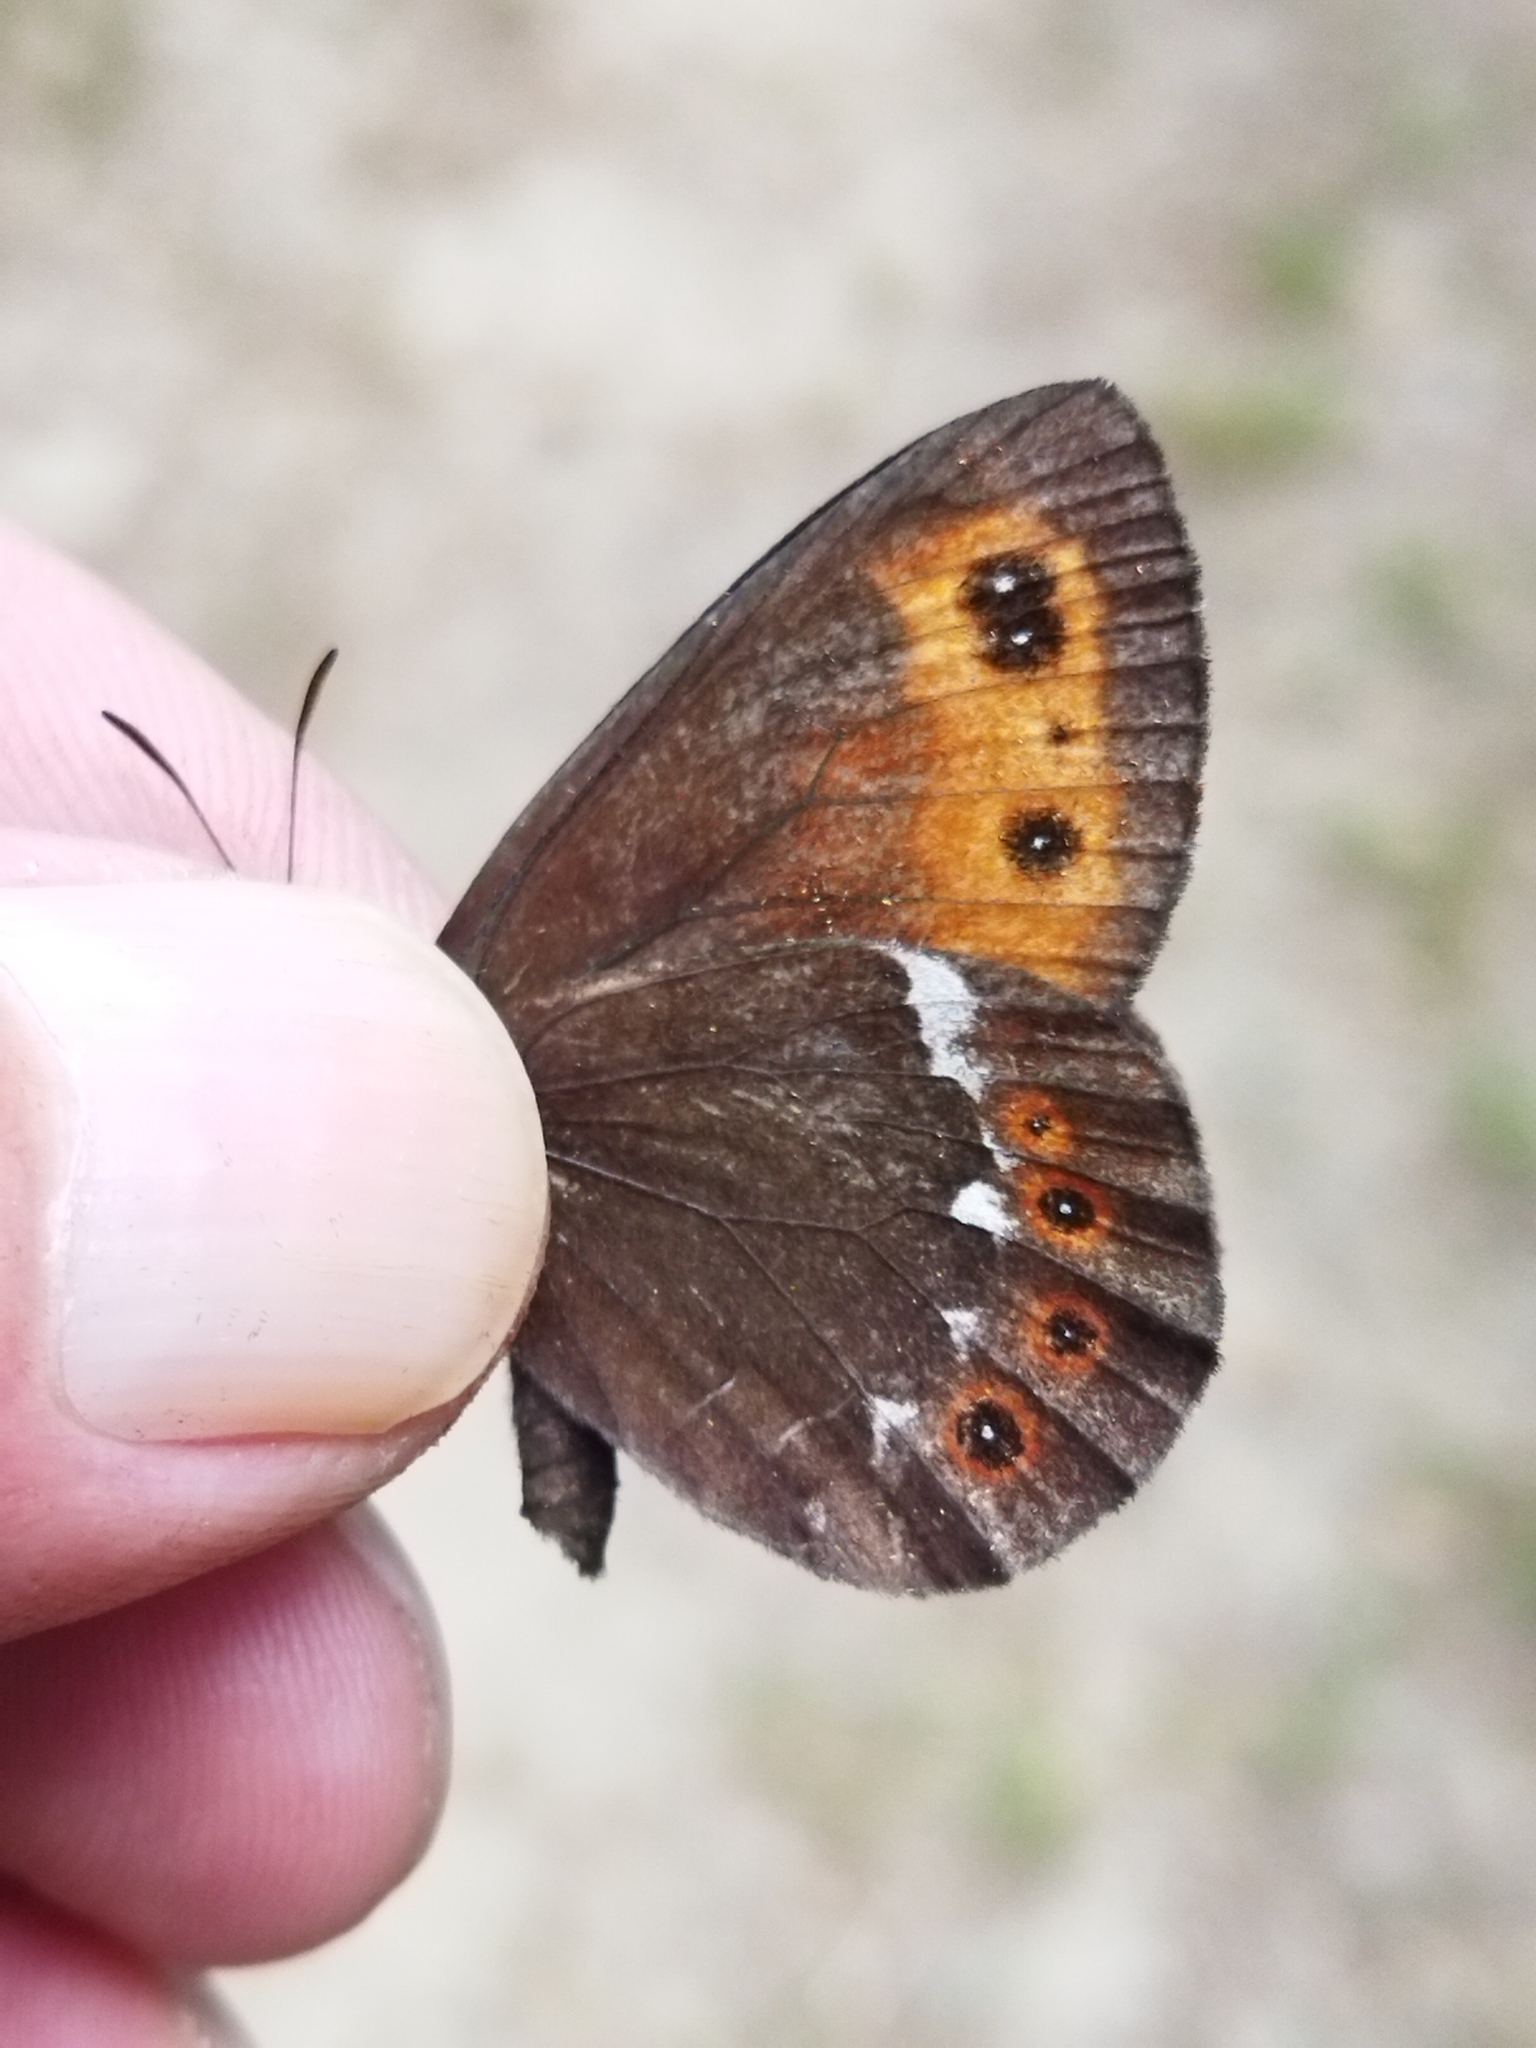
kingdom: Animalia
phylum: Arthropoda
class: Insecta
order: Lepidoptera
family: Nymphalidae
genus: Erebia
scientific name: Erebia ligea
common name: Arran brown
